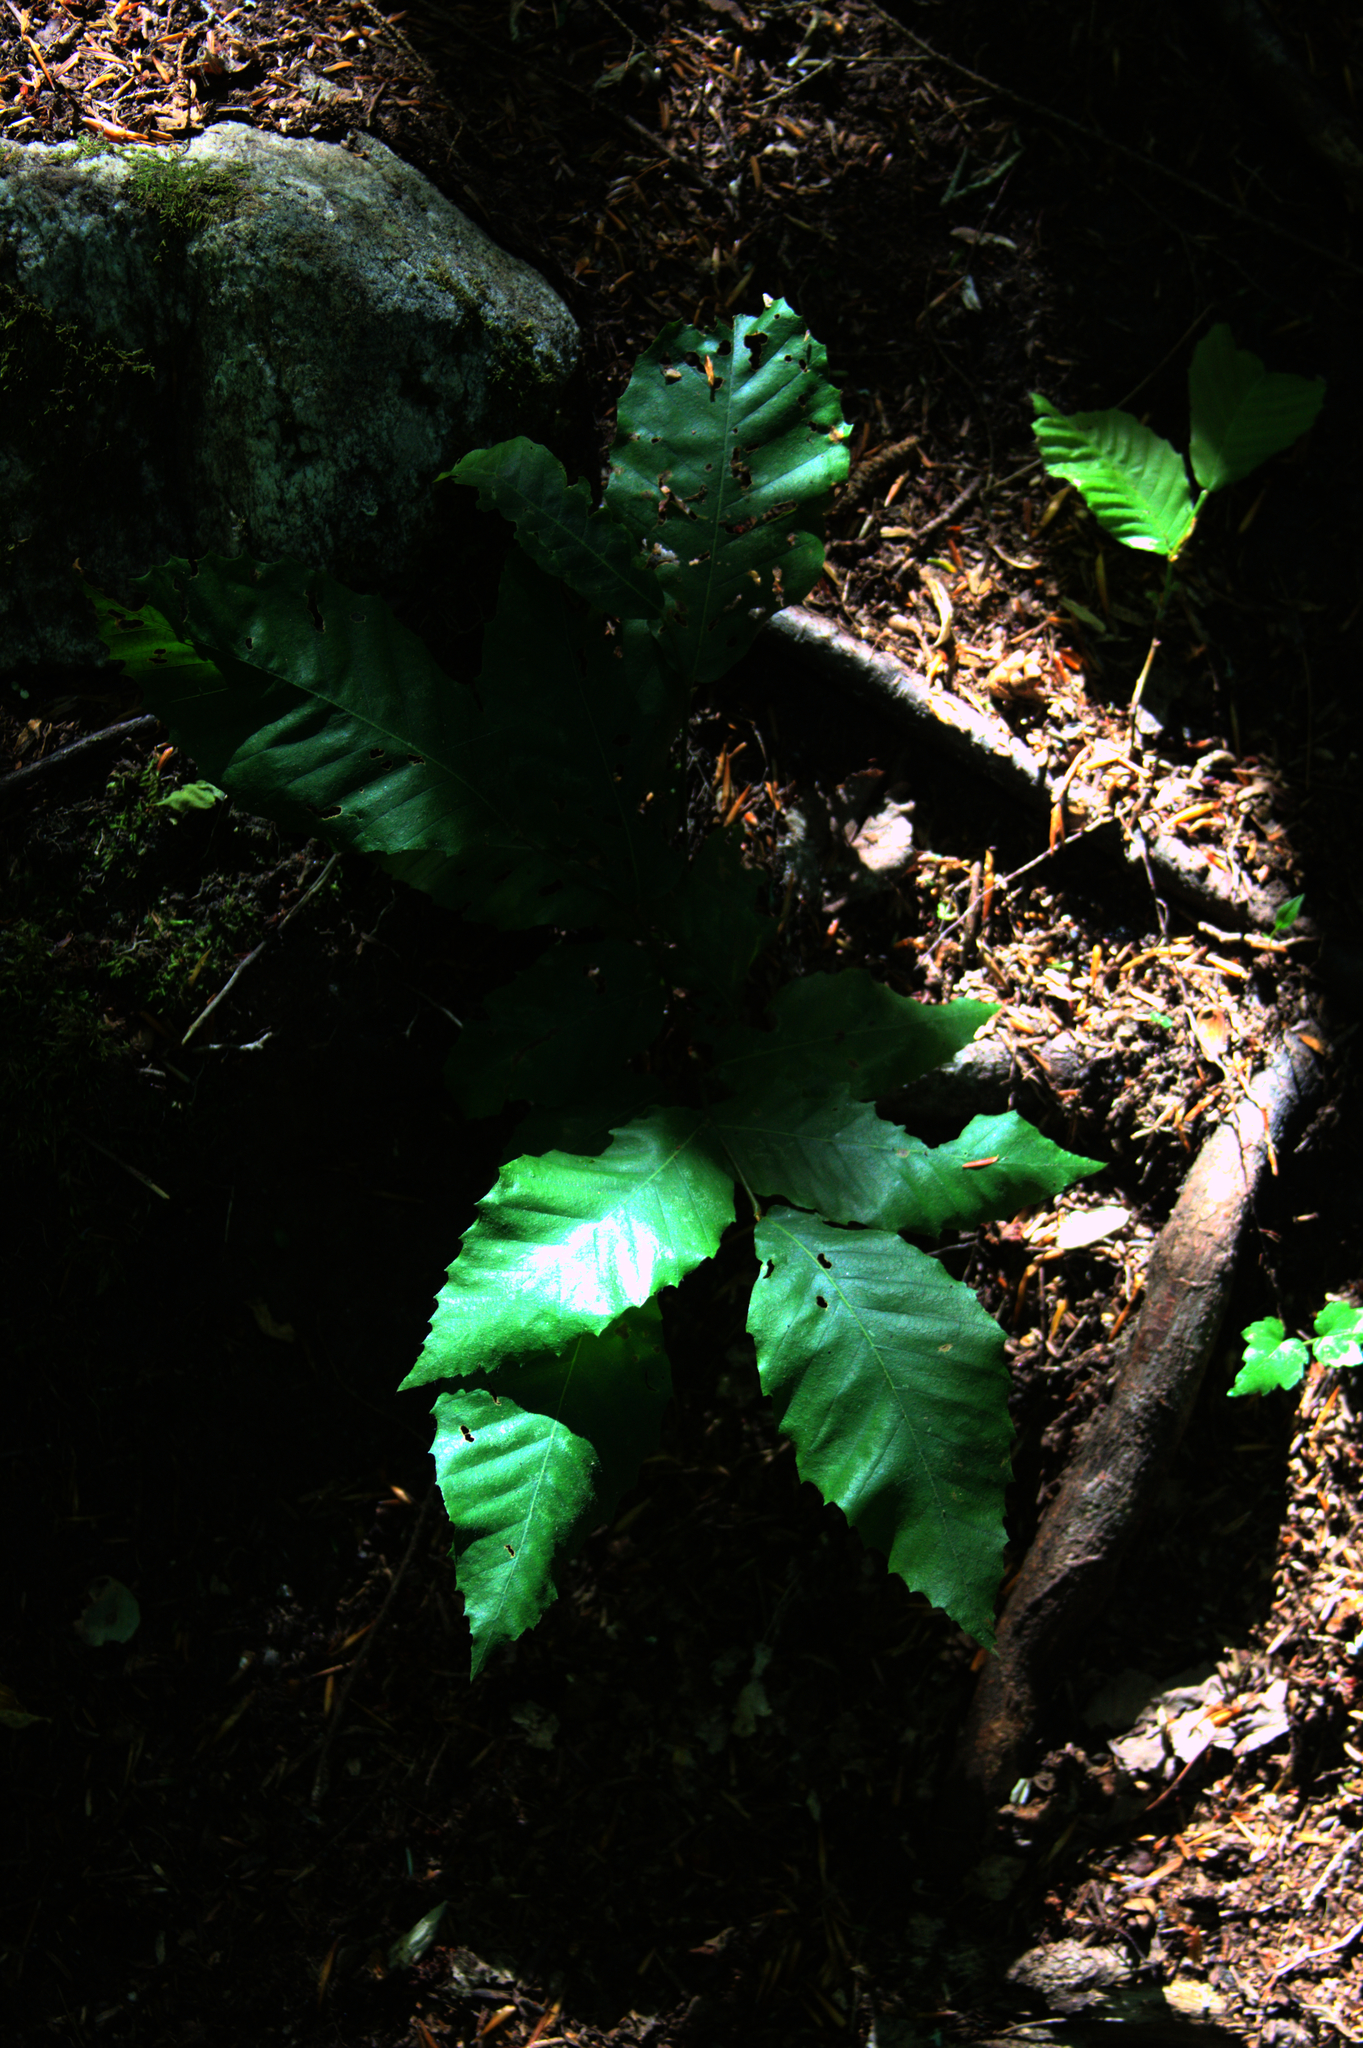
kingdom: Plantae
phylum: Tracheophyta
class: Magnoliopsida
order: Fagales
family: Fagaceae
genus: Fagus
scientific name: Fagus grandifolia
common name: American beech
